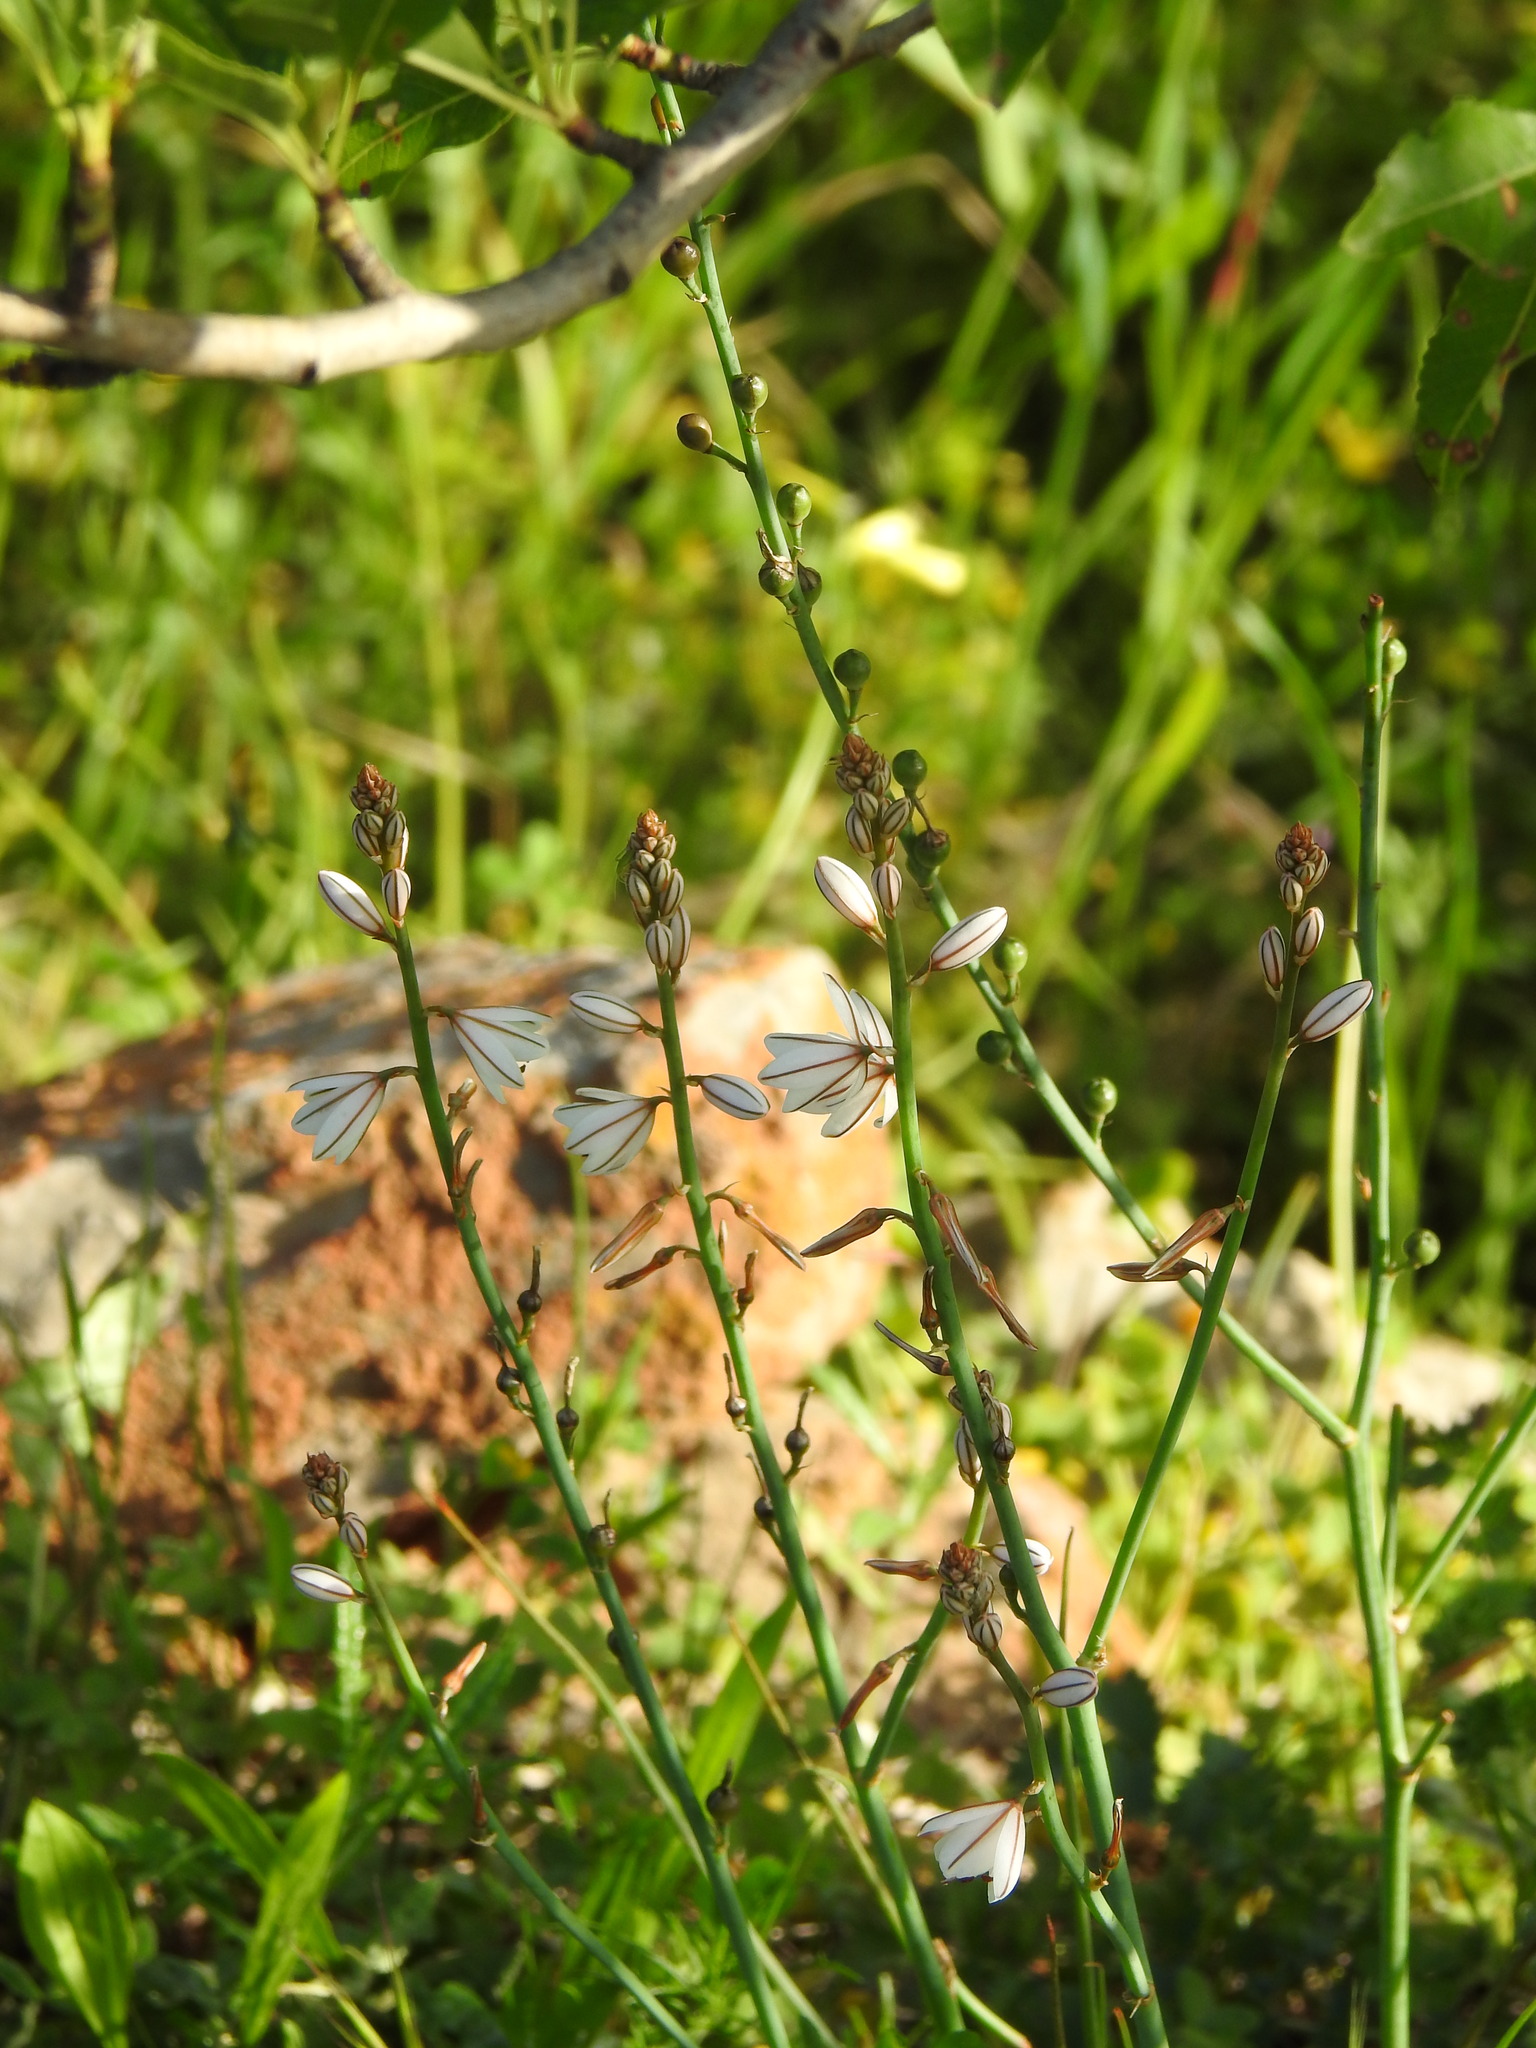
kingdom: Plantae
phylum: Tracheophyta
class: Liliopsida
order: Asparagales
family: Asphodelaceae
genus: Asphodelus
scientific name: Asphodelus fistulosus
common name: Onionweed
